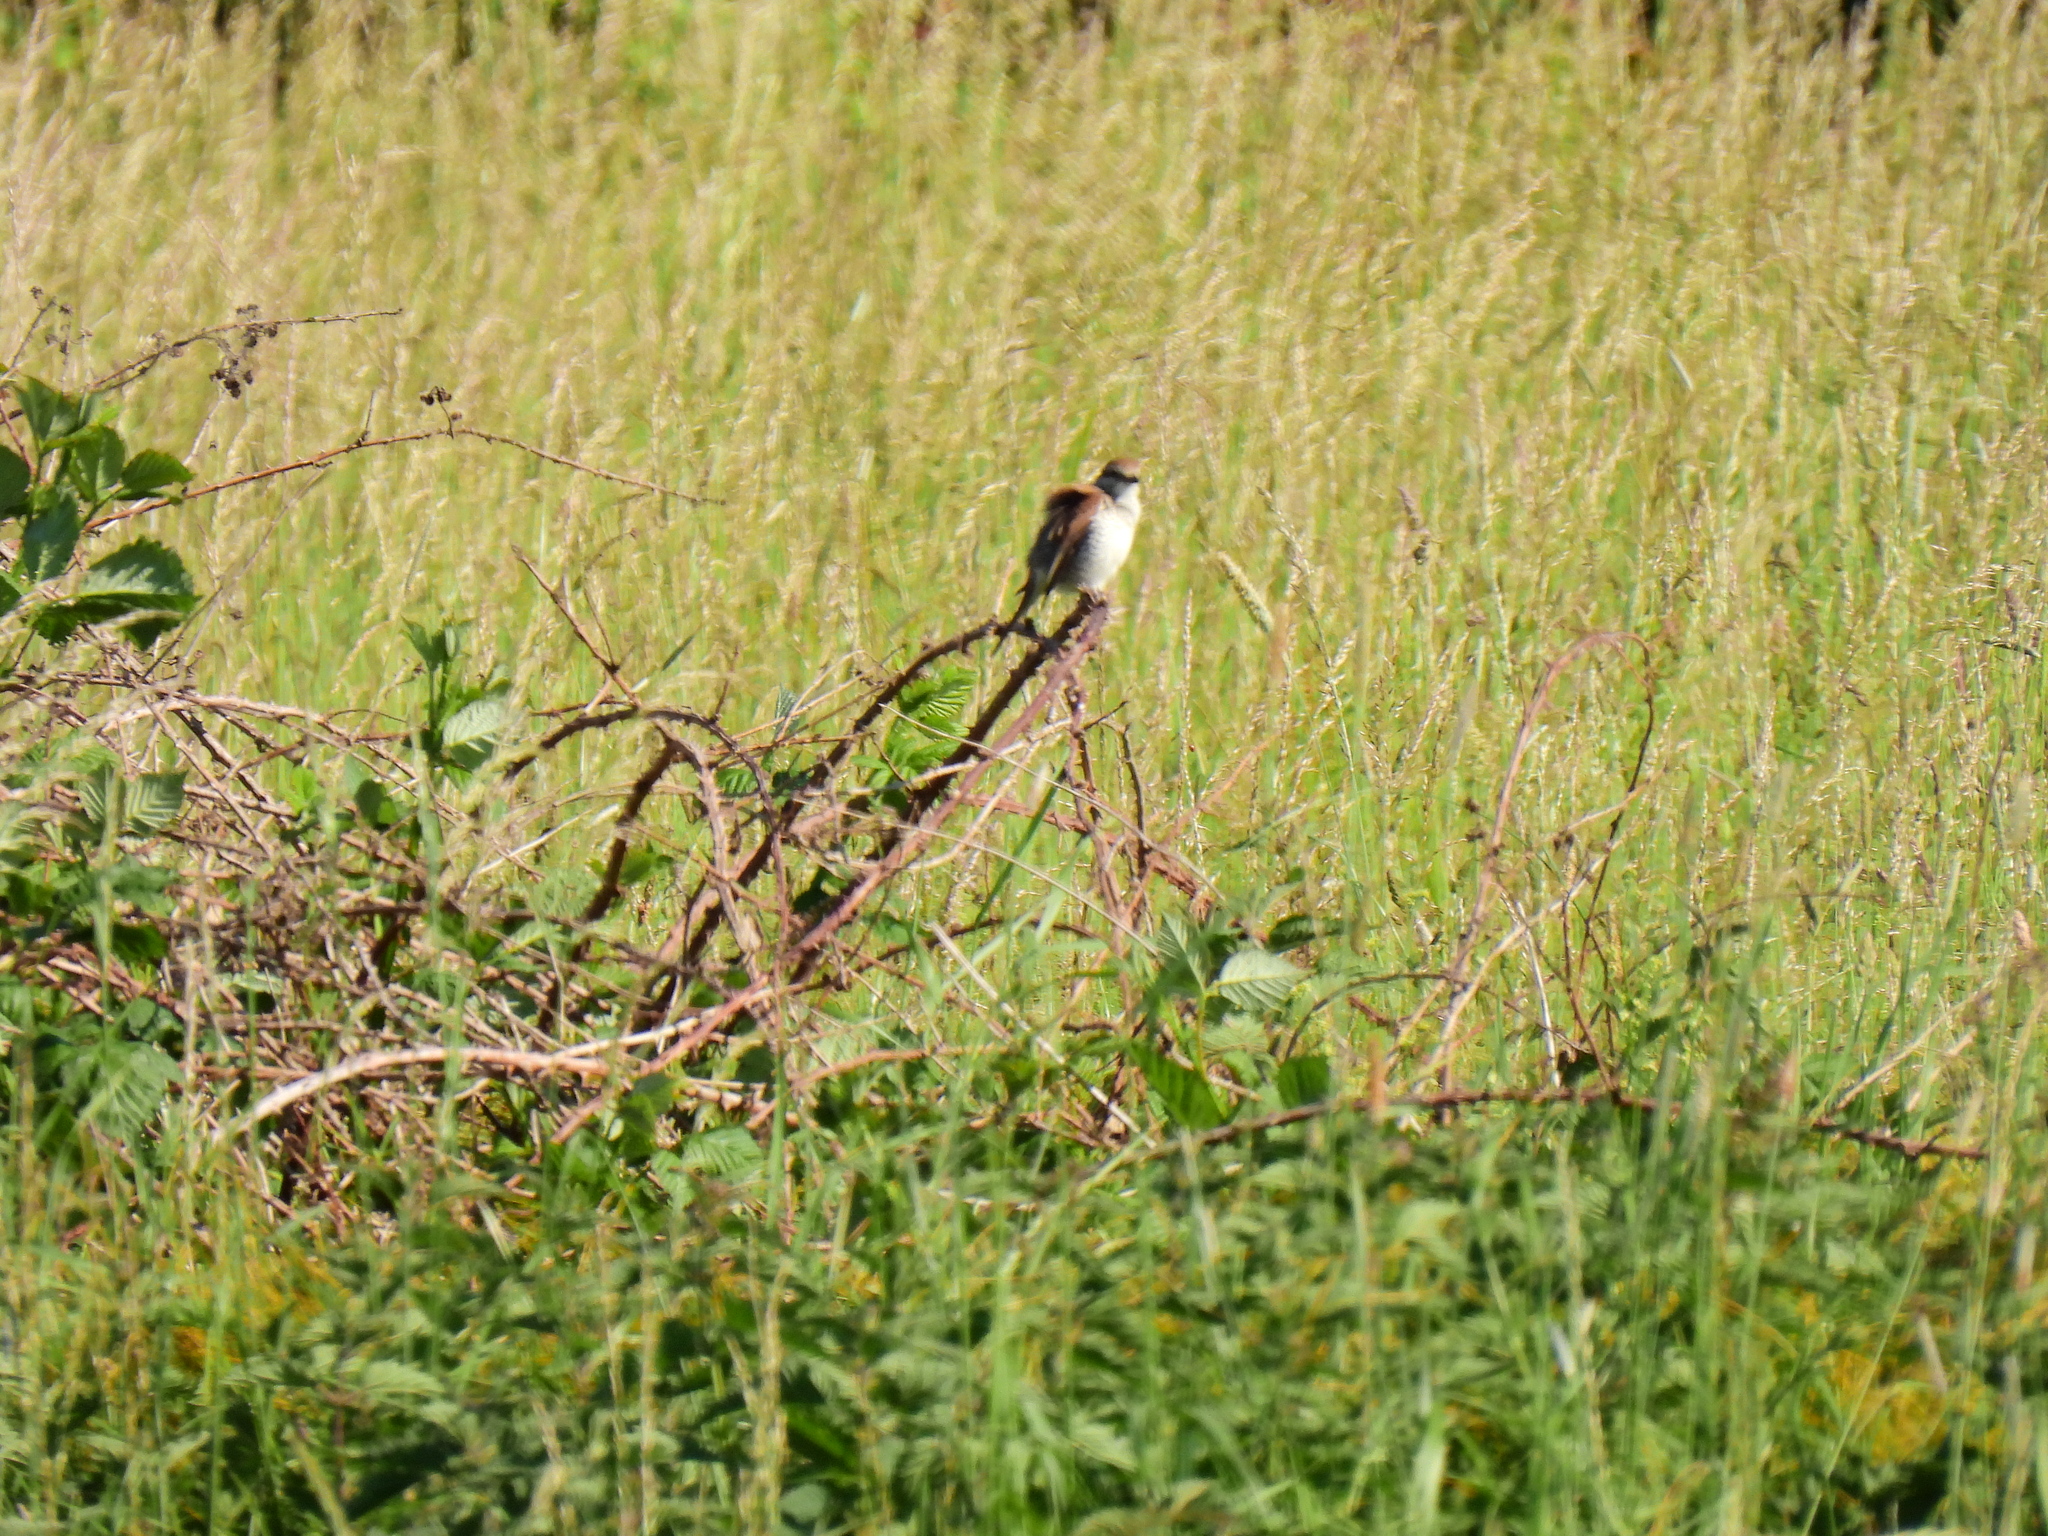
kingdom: Animalia
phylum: Chordata
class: Aves
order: Passeriformes
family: Laniidae
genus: Lanius
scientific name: Lanius collurio
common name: Red-backed shrike
